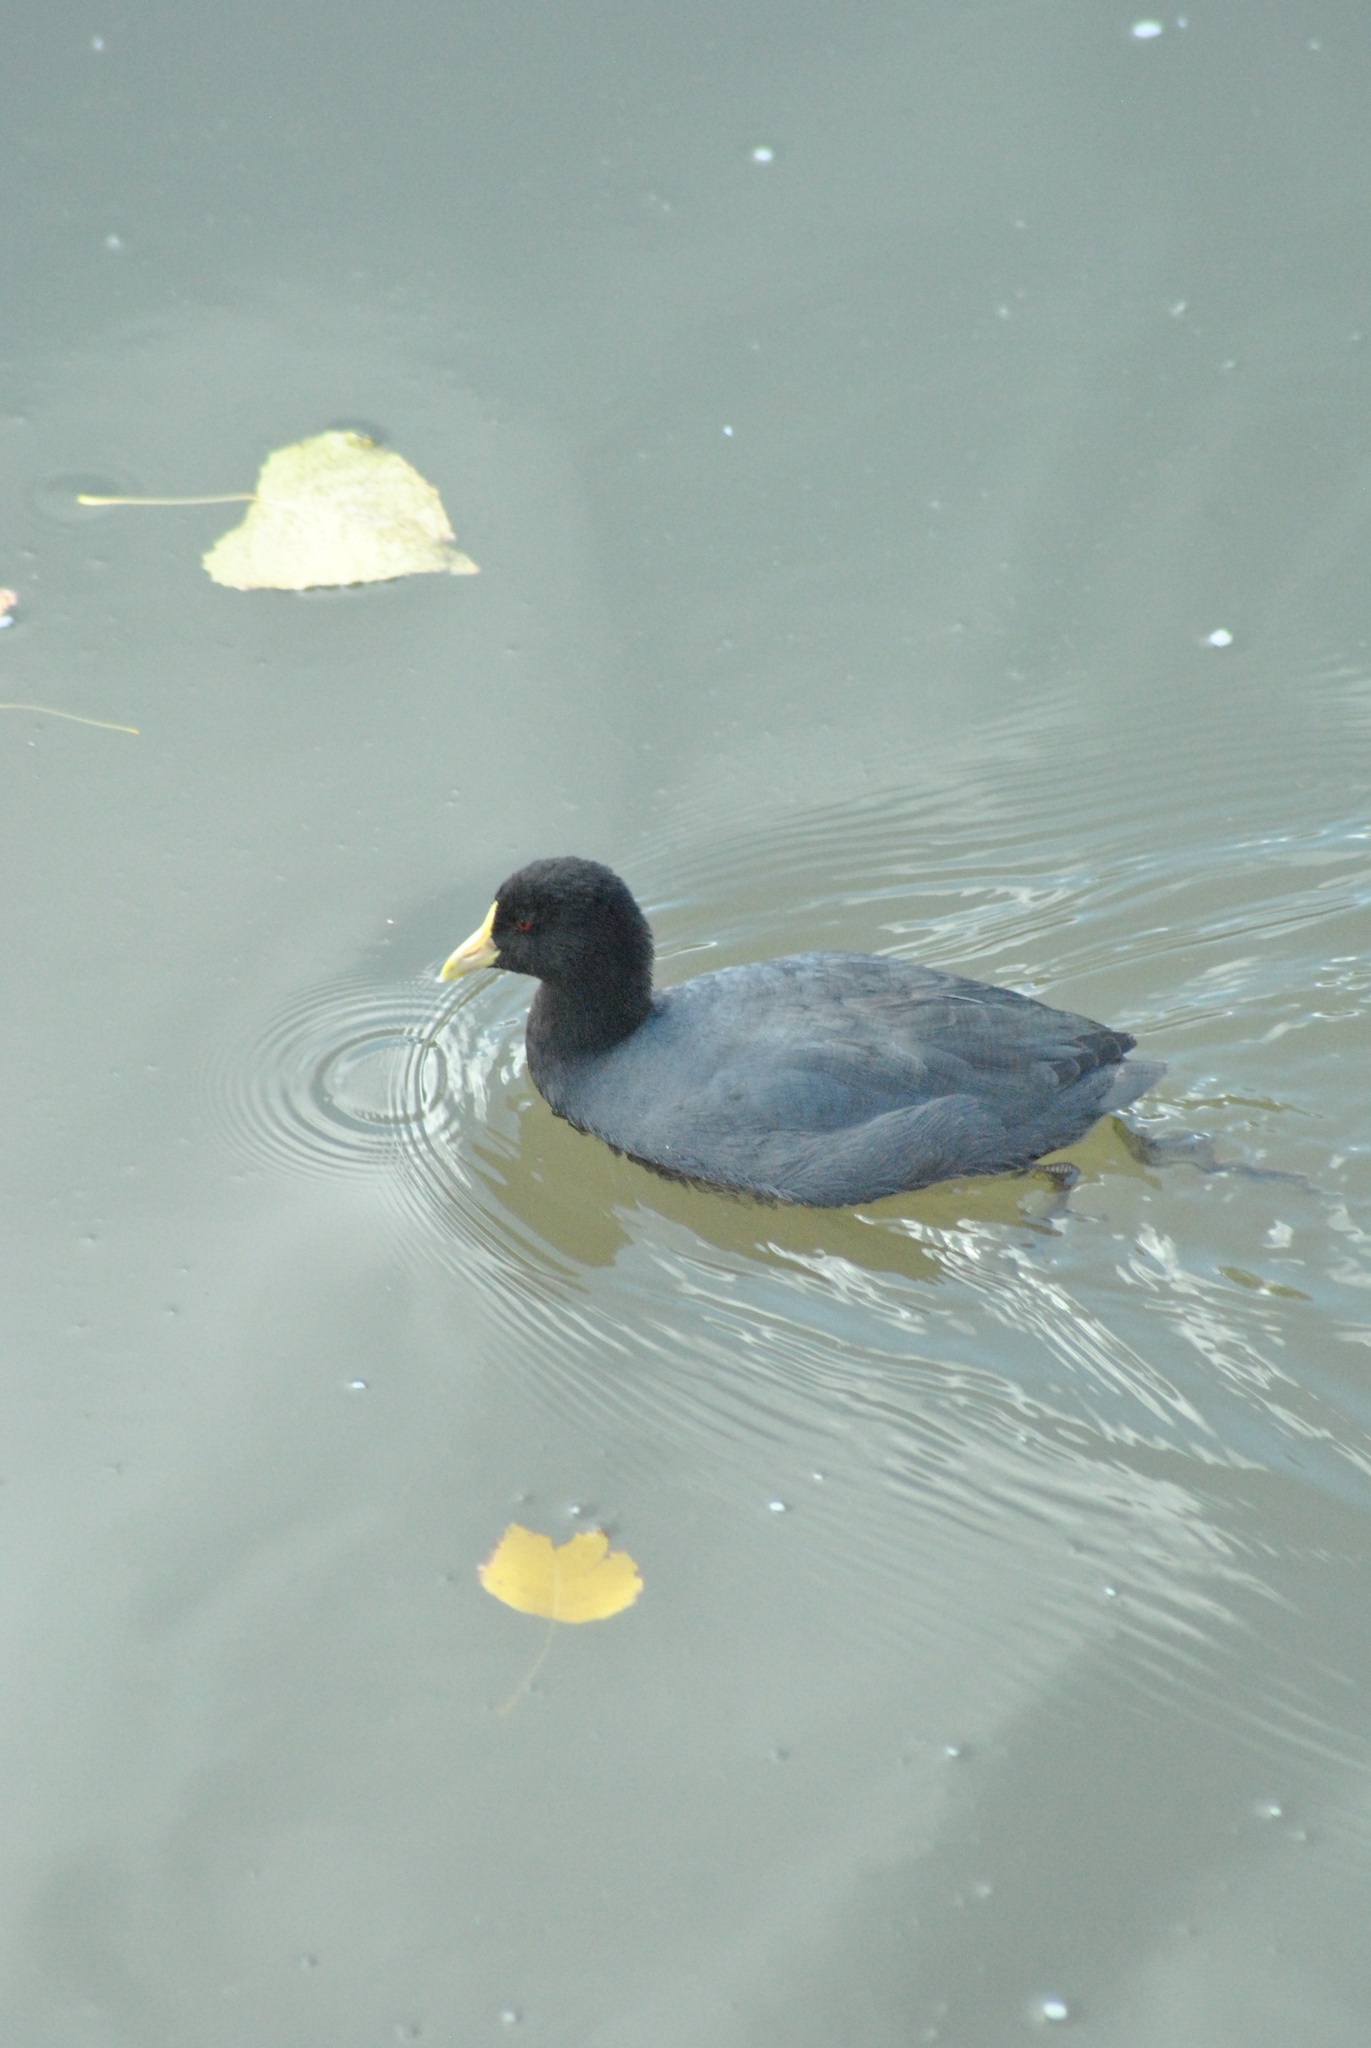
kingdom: Animalia
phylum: Chordata
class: Aves
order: Gruiformes
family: Rallidae
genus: Fulica
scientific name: Fulica leucoptera
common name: White-winged coot
